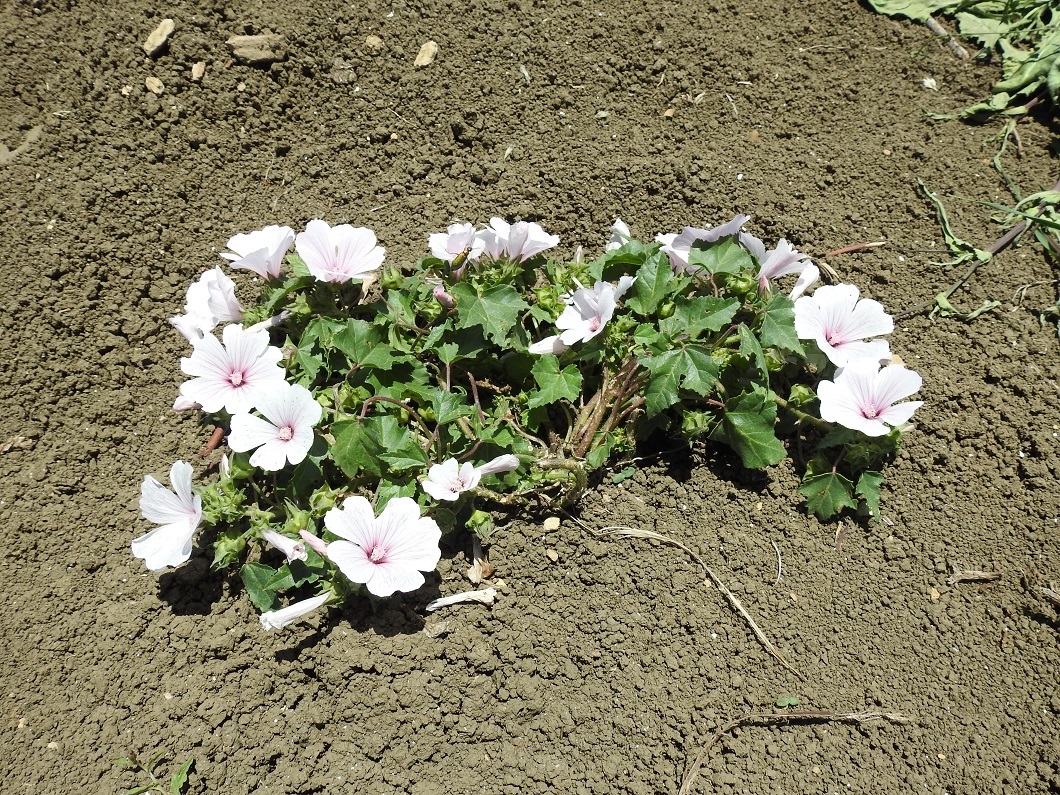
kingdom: Plantae
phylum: Tracheophyta
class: Magnoliopsida
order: Malvales
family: Malvaceae
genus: Malva
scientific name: Malva trimestris
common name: Royal mallow
